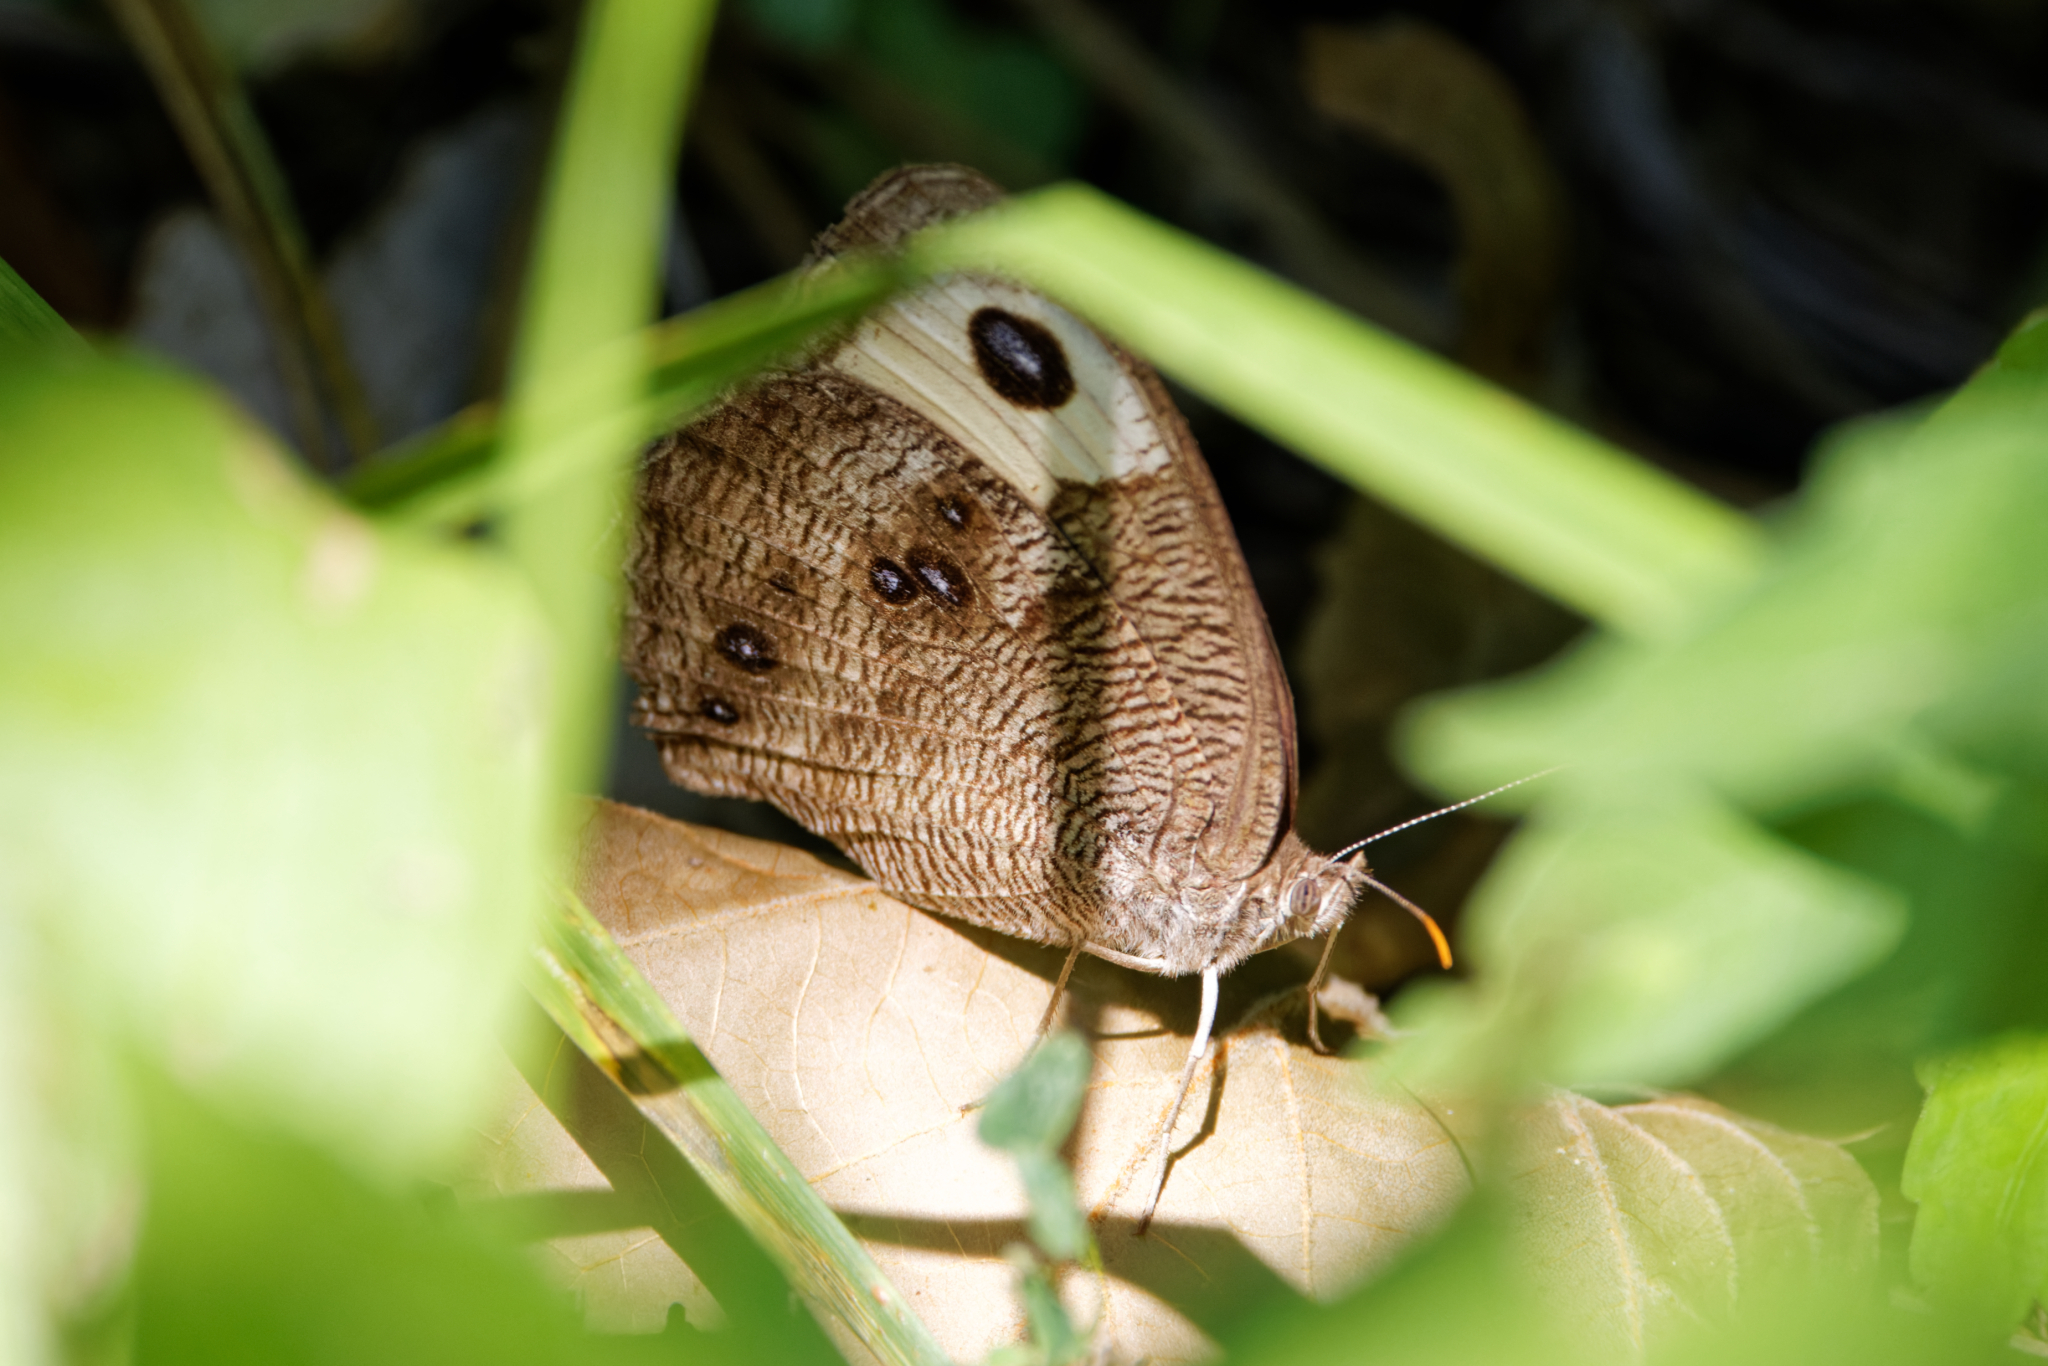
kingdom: Animalia
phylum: Arthropoda
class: Insecta
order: Lepidoptera
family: Nymphalidae
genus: Cercyonis
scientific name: Cercyonis pegala
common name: Common wood-nymph
